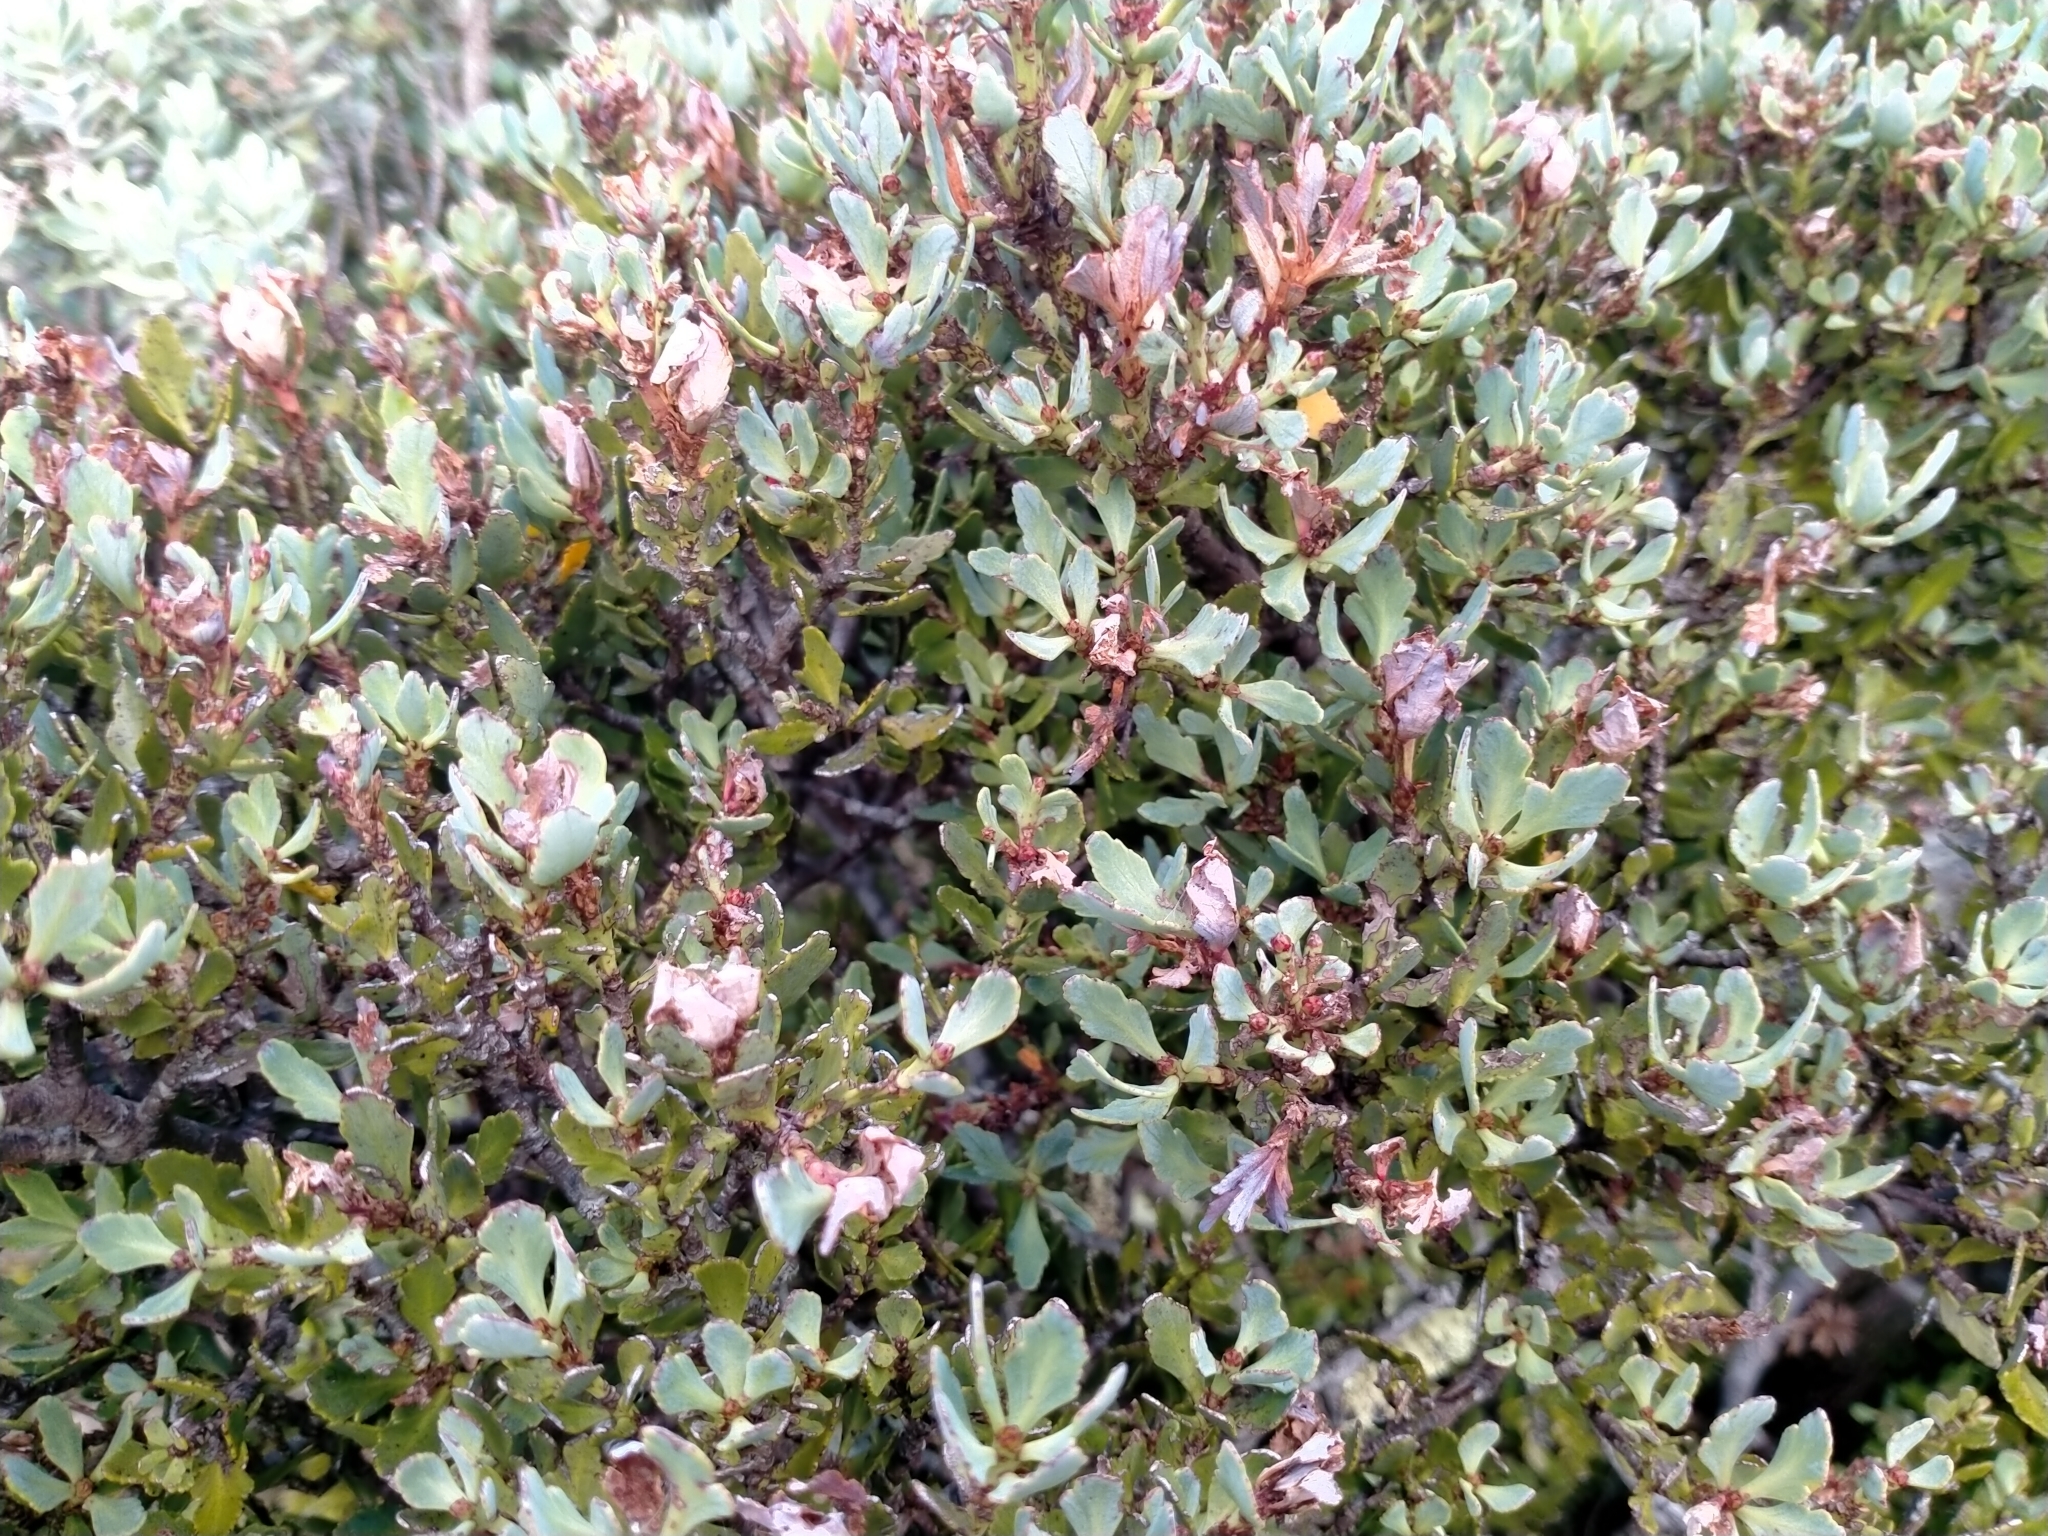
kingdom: Plantae
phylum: Tracheophyta
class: Pinopsida
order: Pinales
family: Phyllocladaceae
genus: Phyllocladus
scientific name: Phyllocladus trichomanoides
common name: Celery pine
